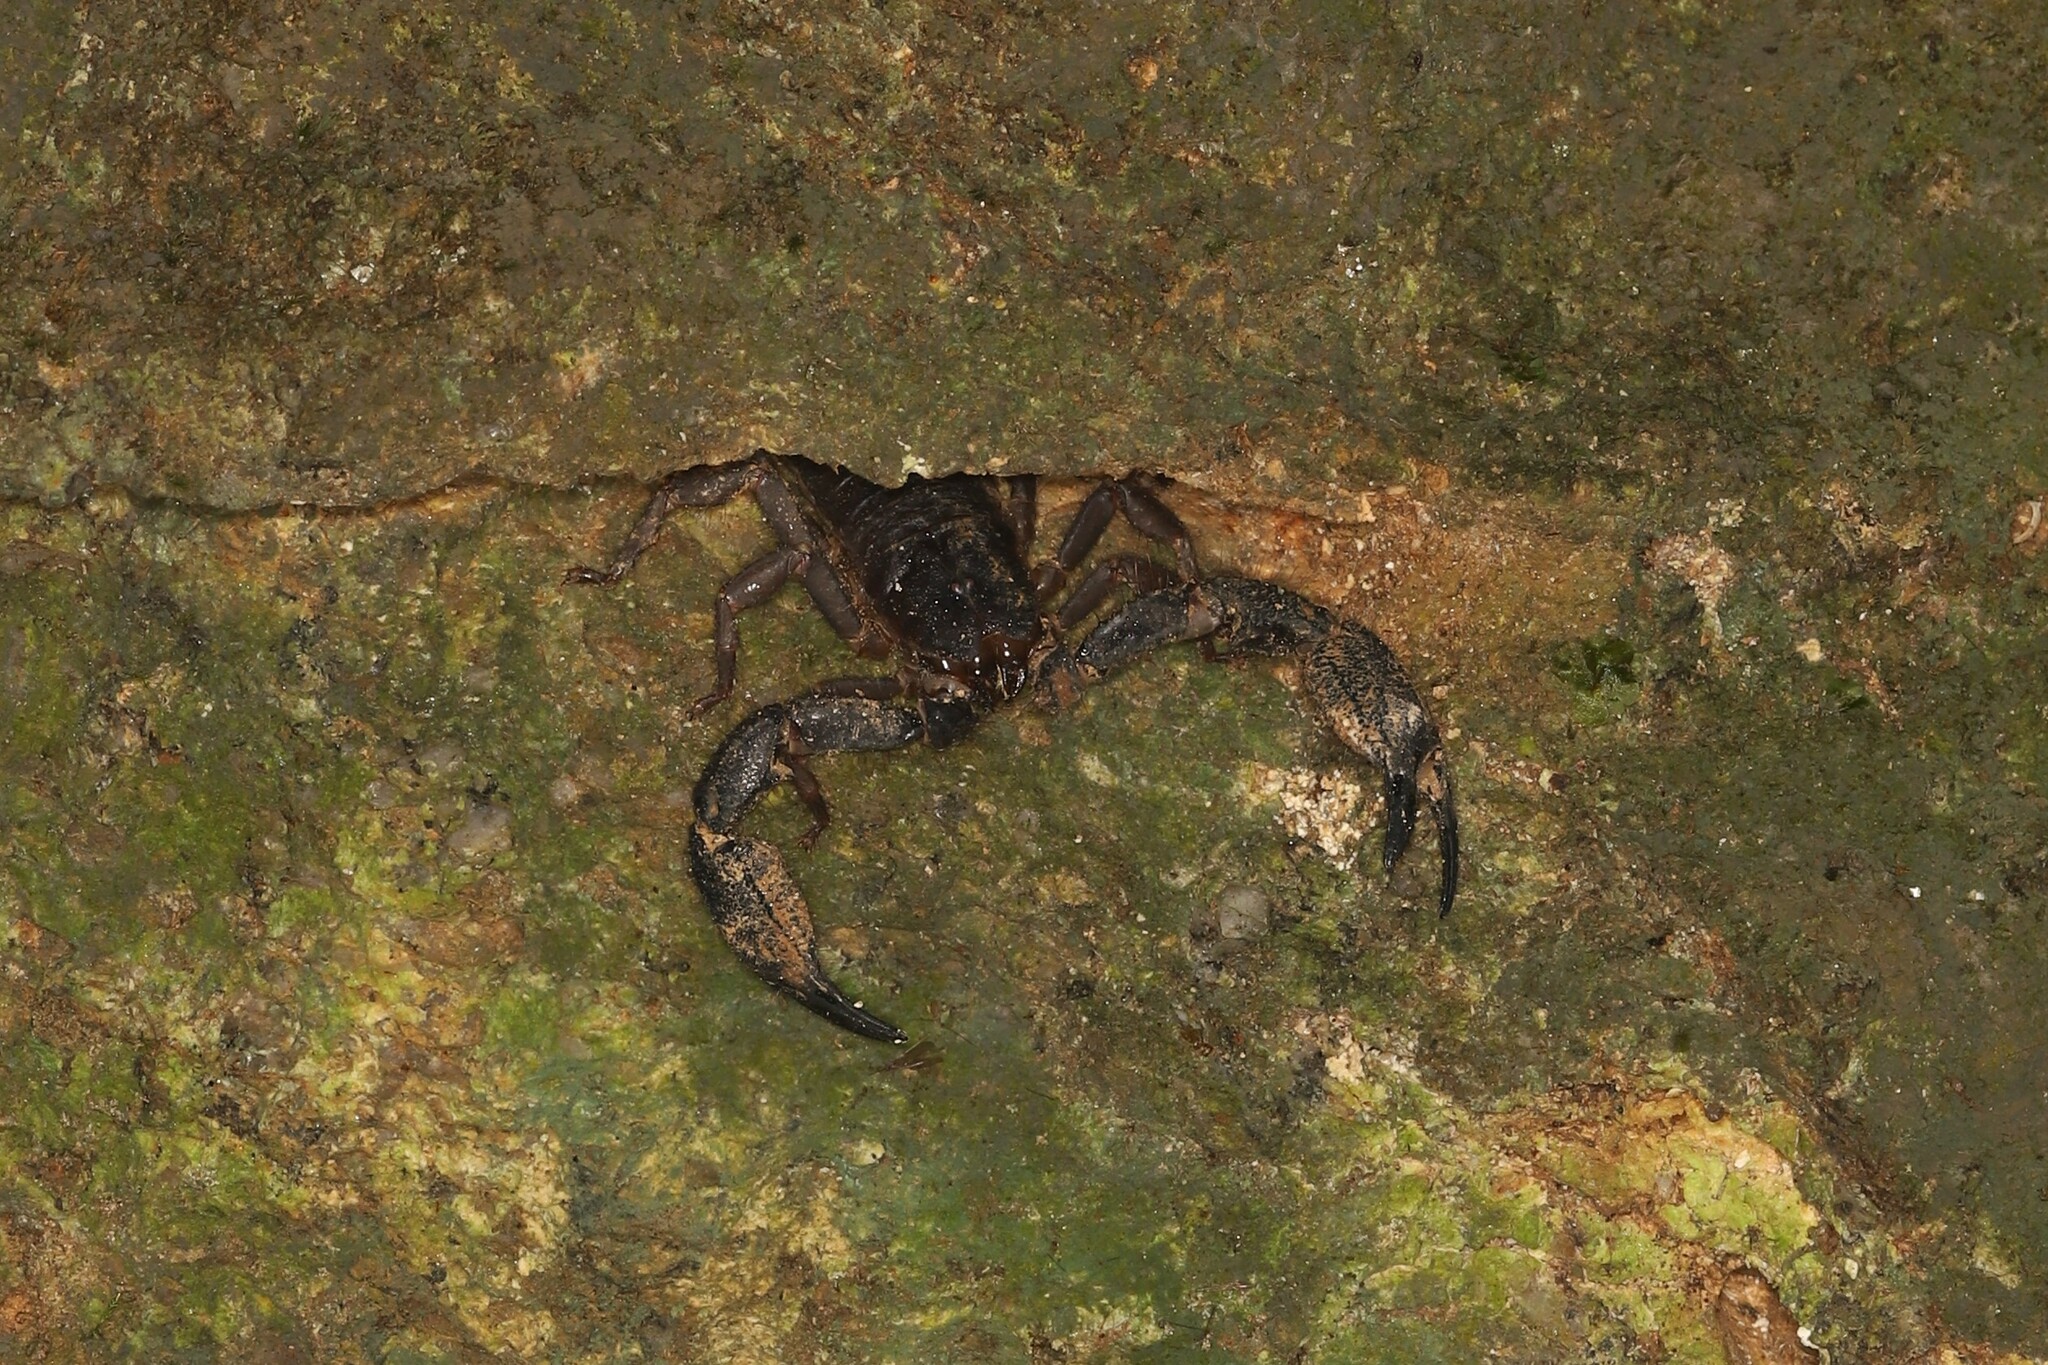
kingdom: Animalia
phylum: Arthropoda
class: Arachnida
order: Scorpiones
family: Hormuridae
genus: Opisthacanthus
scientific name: Opisthacanthus elatus
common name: Scorpions
